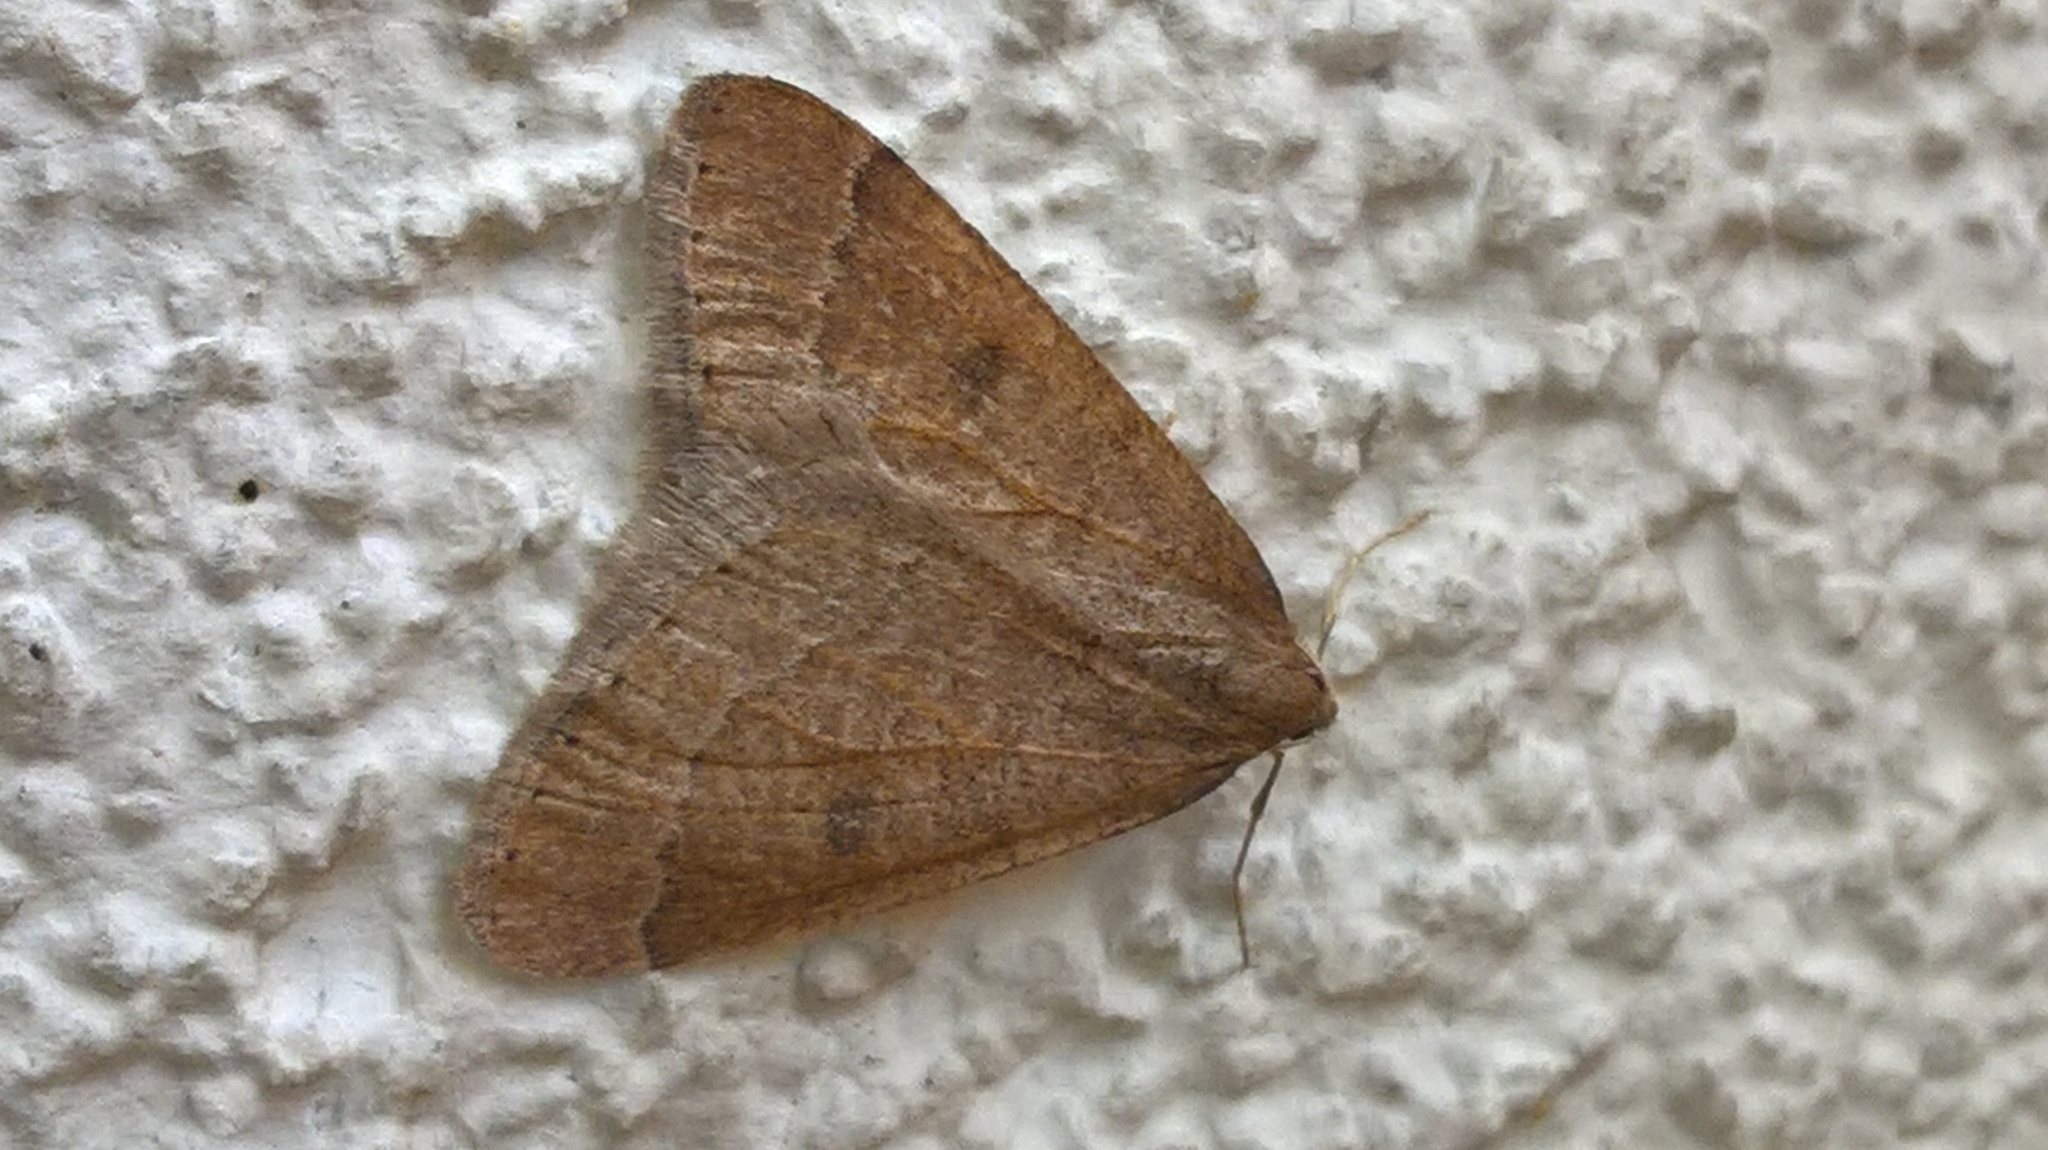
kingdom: Animalia
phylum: Arthropoda
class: Insecta
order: Lepidoptera
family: Geometridae
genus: Theria
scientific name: Theria primaria
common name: Early moth
